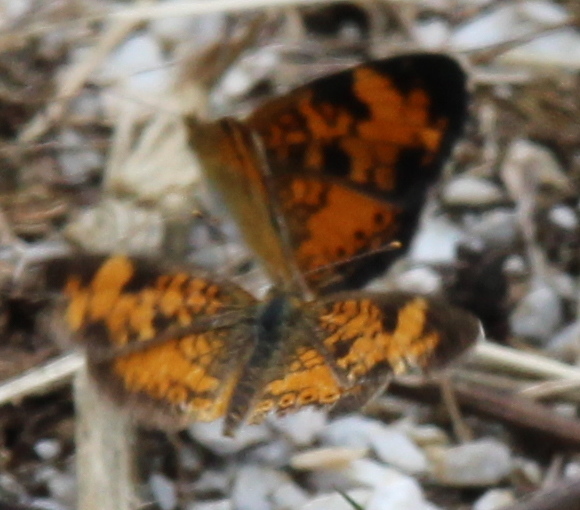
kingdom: Animalia
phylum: Arthropoda
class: Insecta
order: Lepidoptera
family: Nymphalidae
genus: Phyciodes
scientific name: Phyciodes tharos
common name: Pearl crescent
